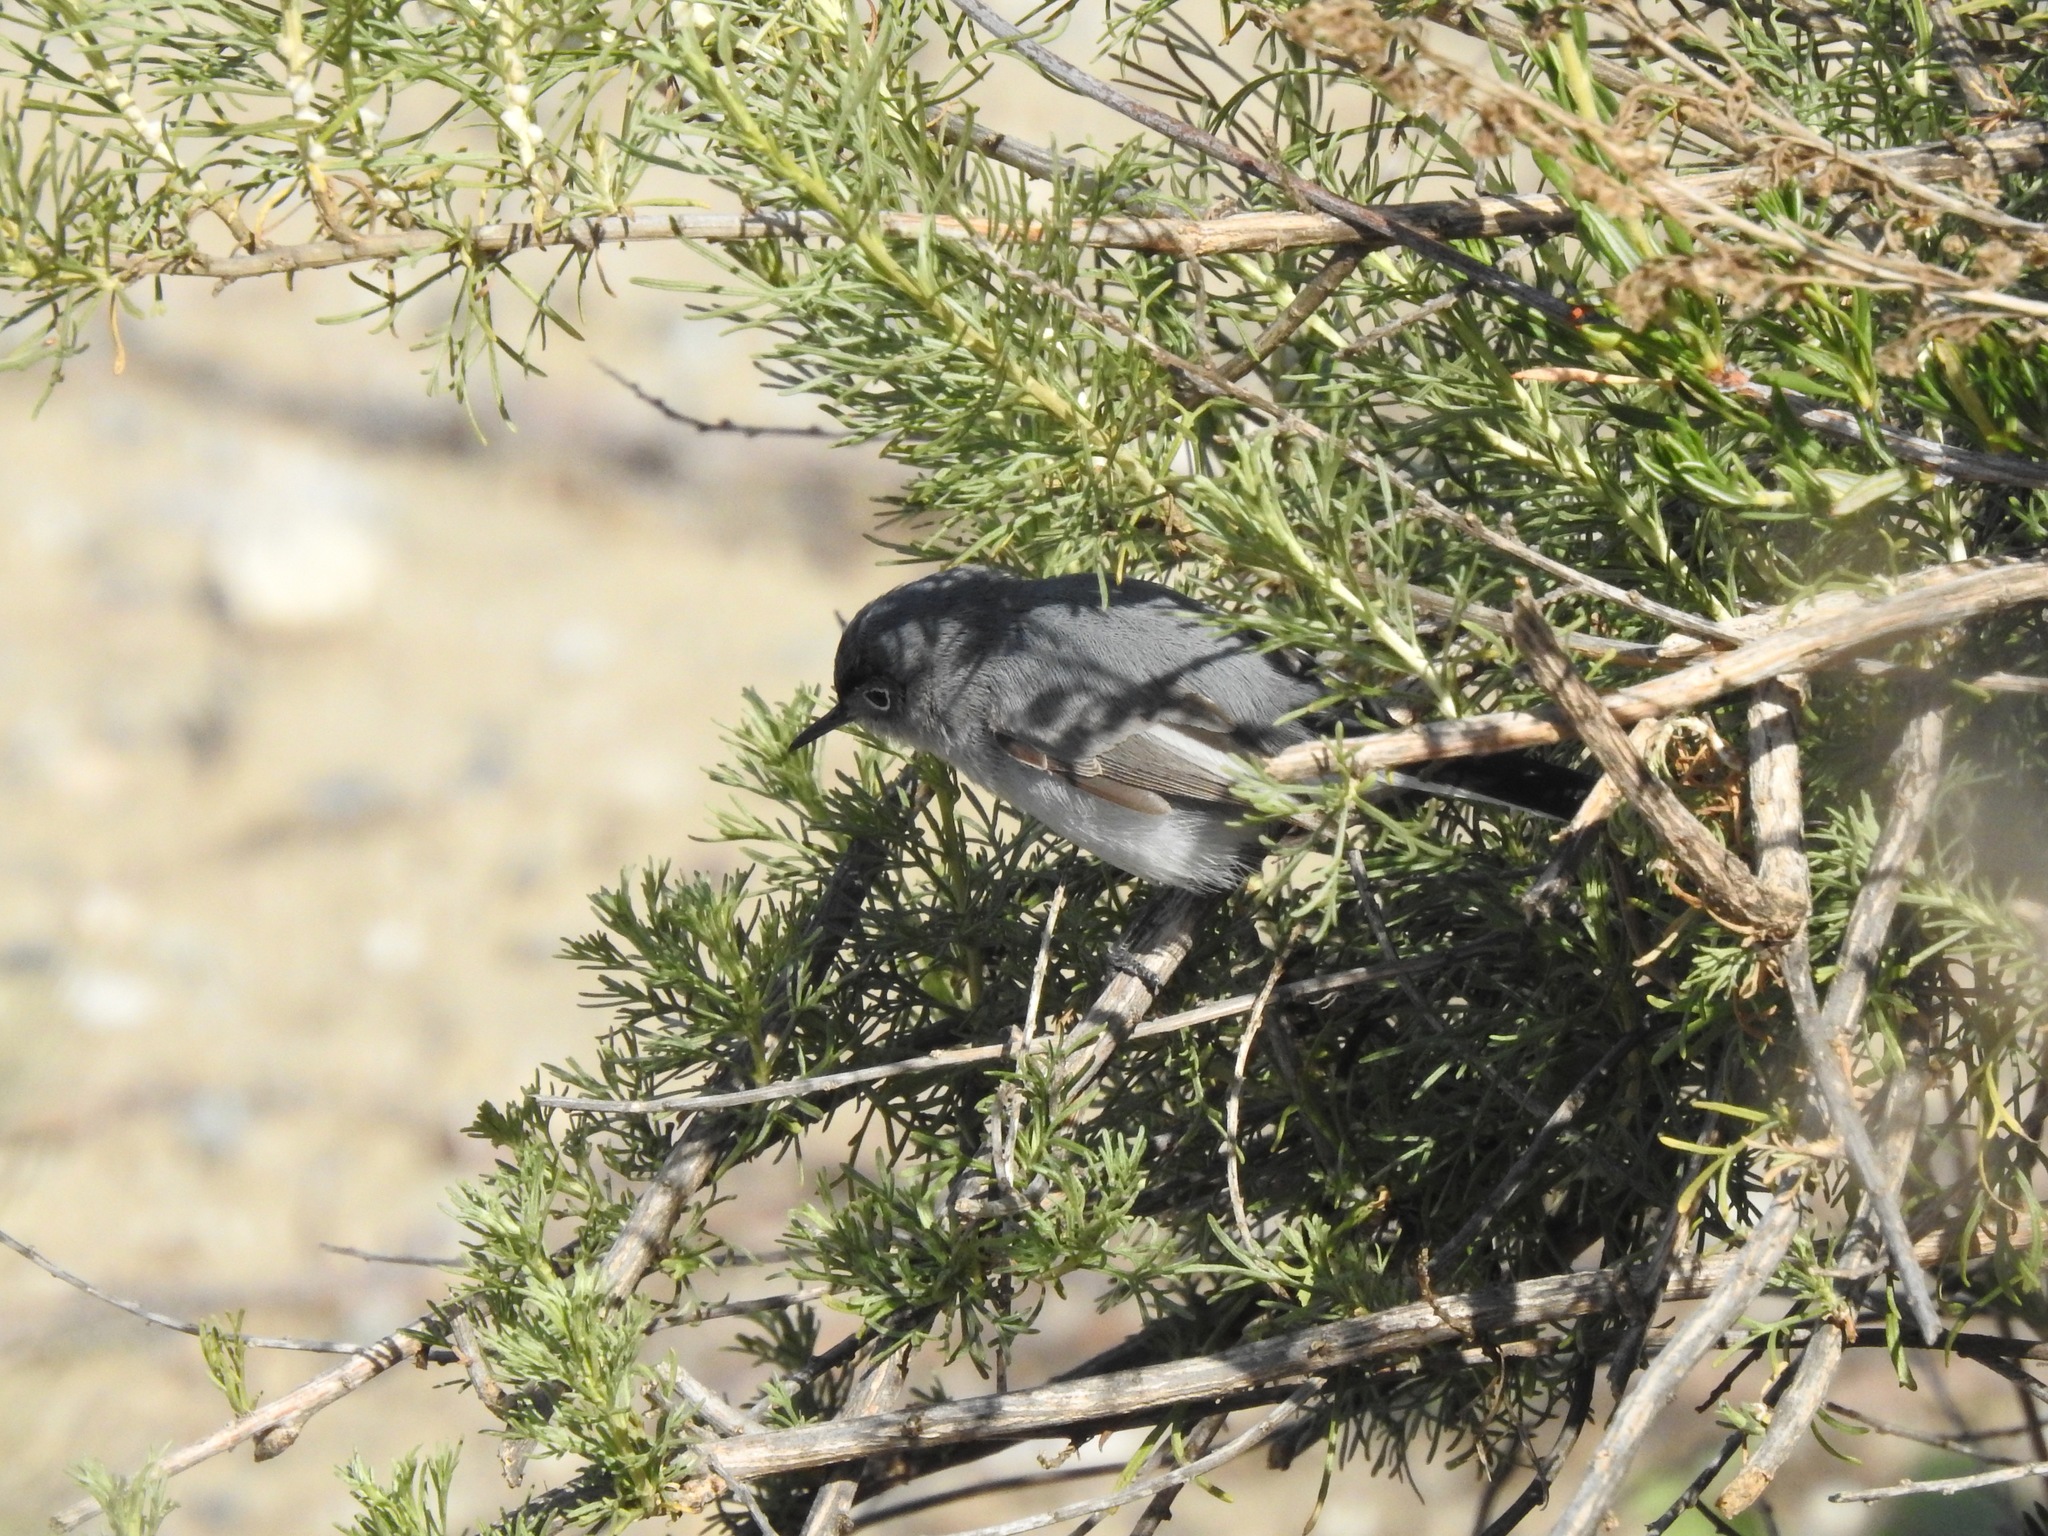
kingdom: Animalia
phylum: Chordata
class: Aves
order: Passeriformes
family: Polioptilidae
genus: Polioptila
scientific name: Polioptila caerulea
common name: Blue-gray gnatcatcher
